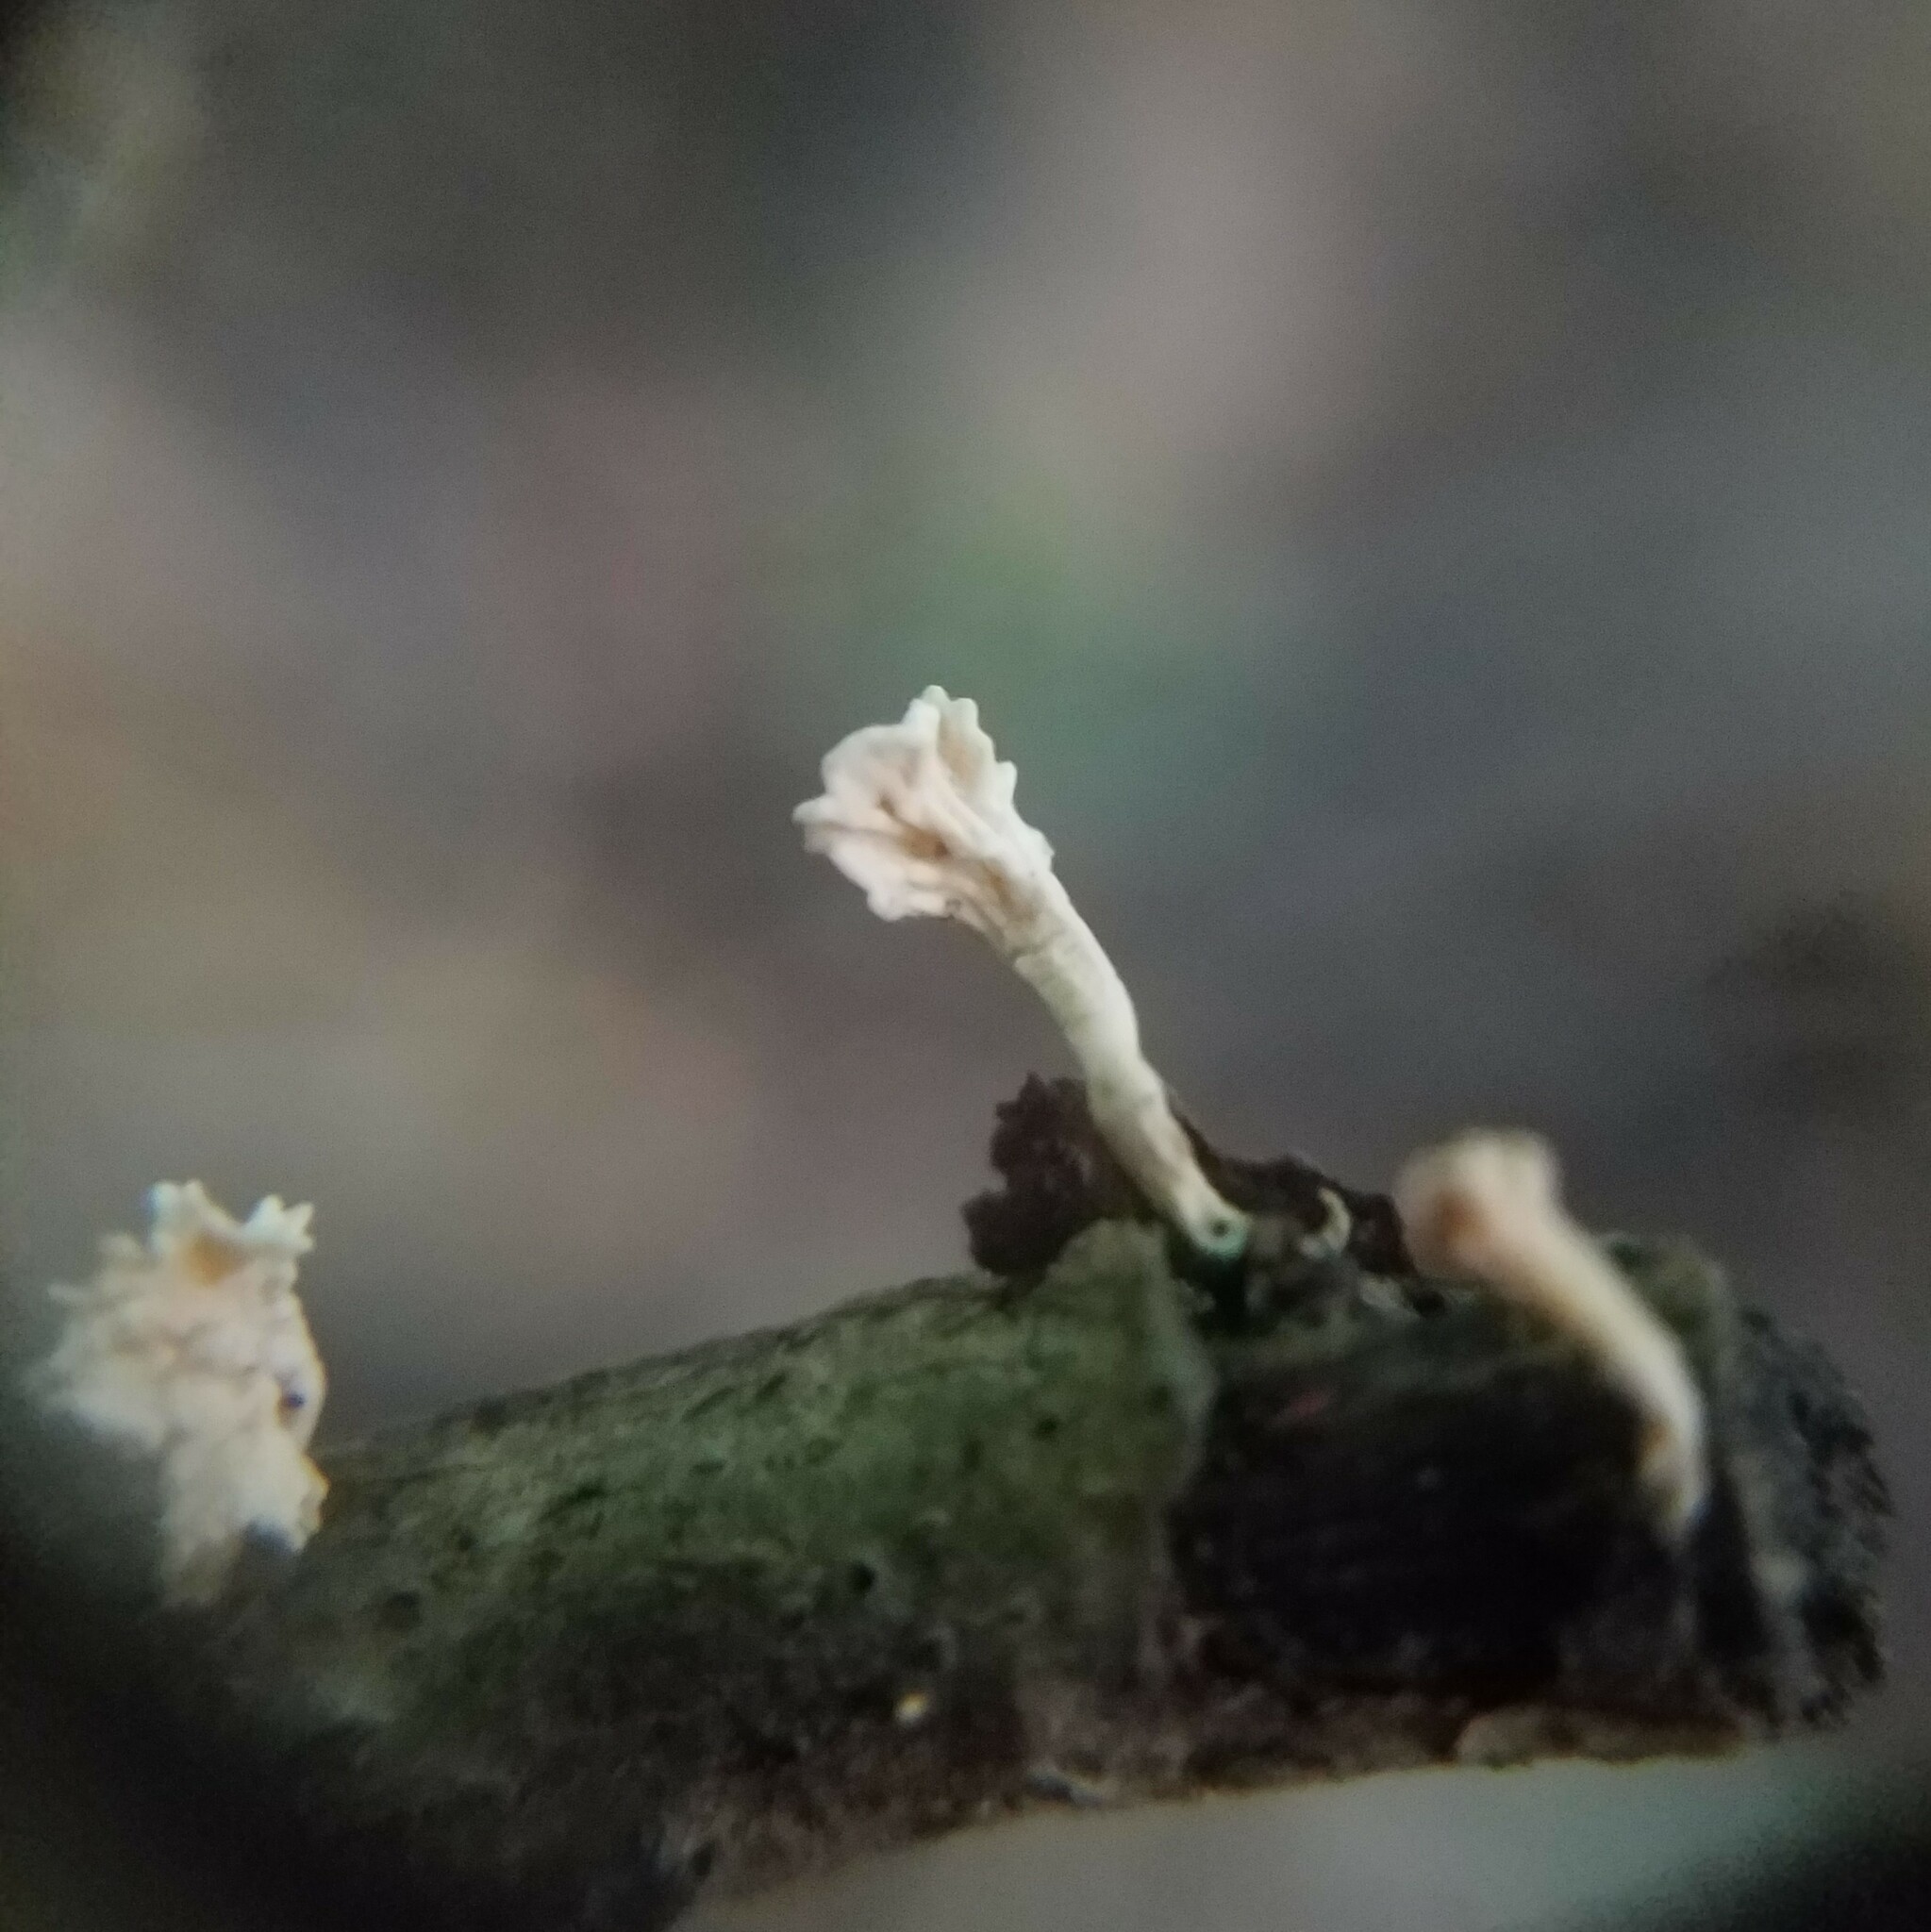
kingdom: Fungi
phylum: Ascomycota
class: Sordariomycetes
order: Xylariales
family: Xylariaceae
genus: Xylaria
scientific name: Xylaria cubensis
